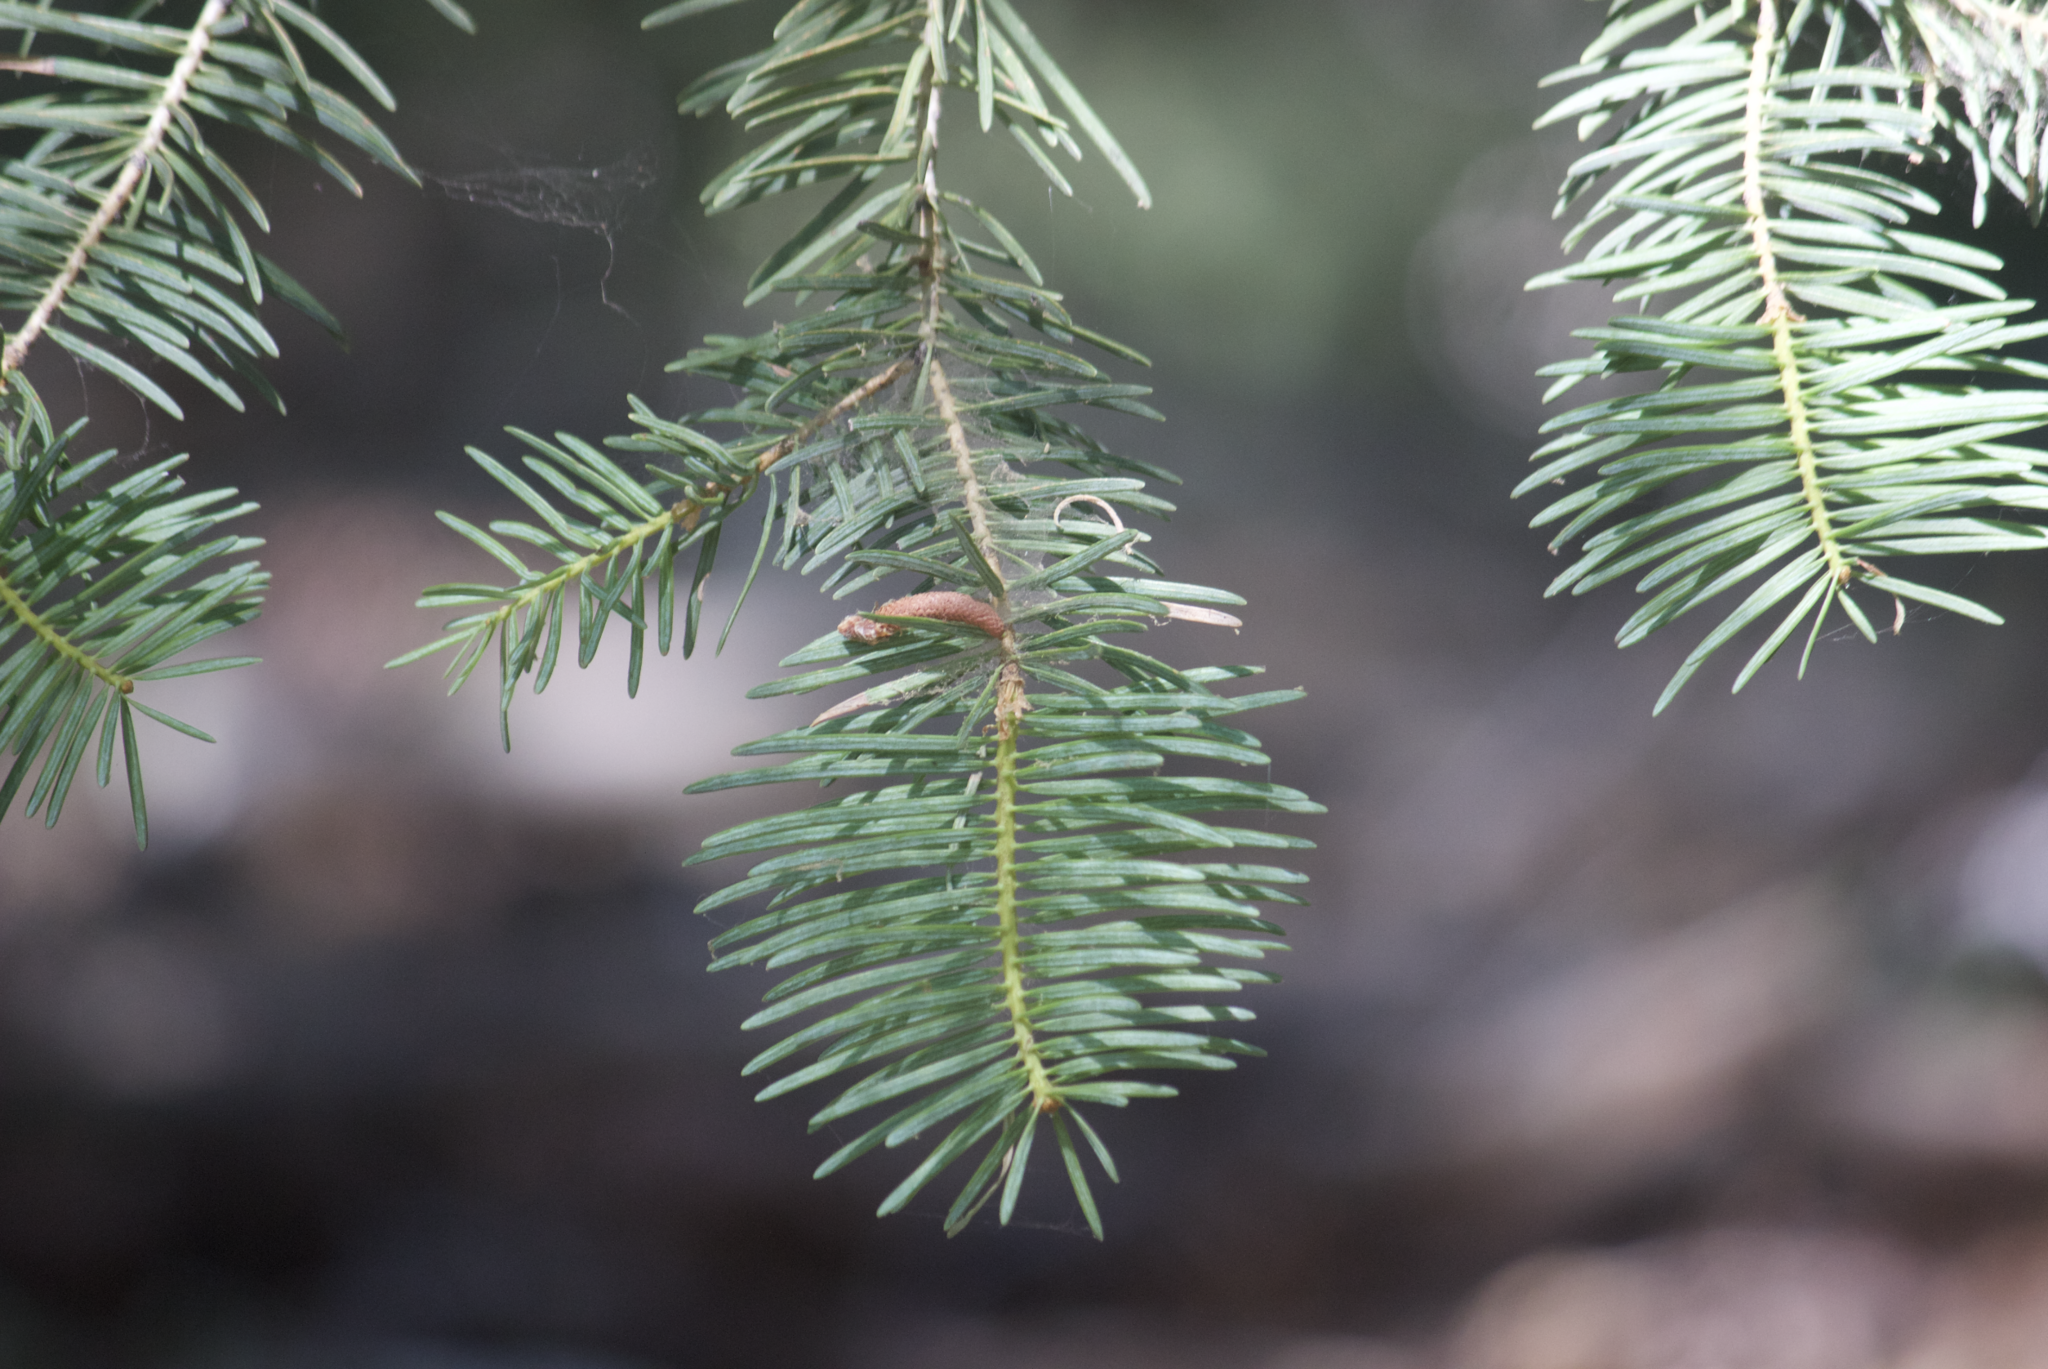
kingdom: Plantae
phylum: Tracheophyta
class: Pinopsida
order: Pinales
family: Pinaceae
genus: Pseudotsuga
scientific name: Pseudotsuga macrocarpa
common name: Big-cone douglas-fir
